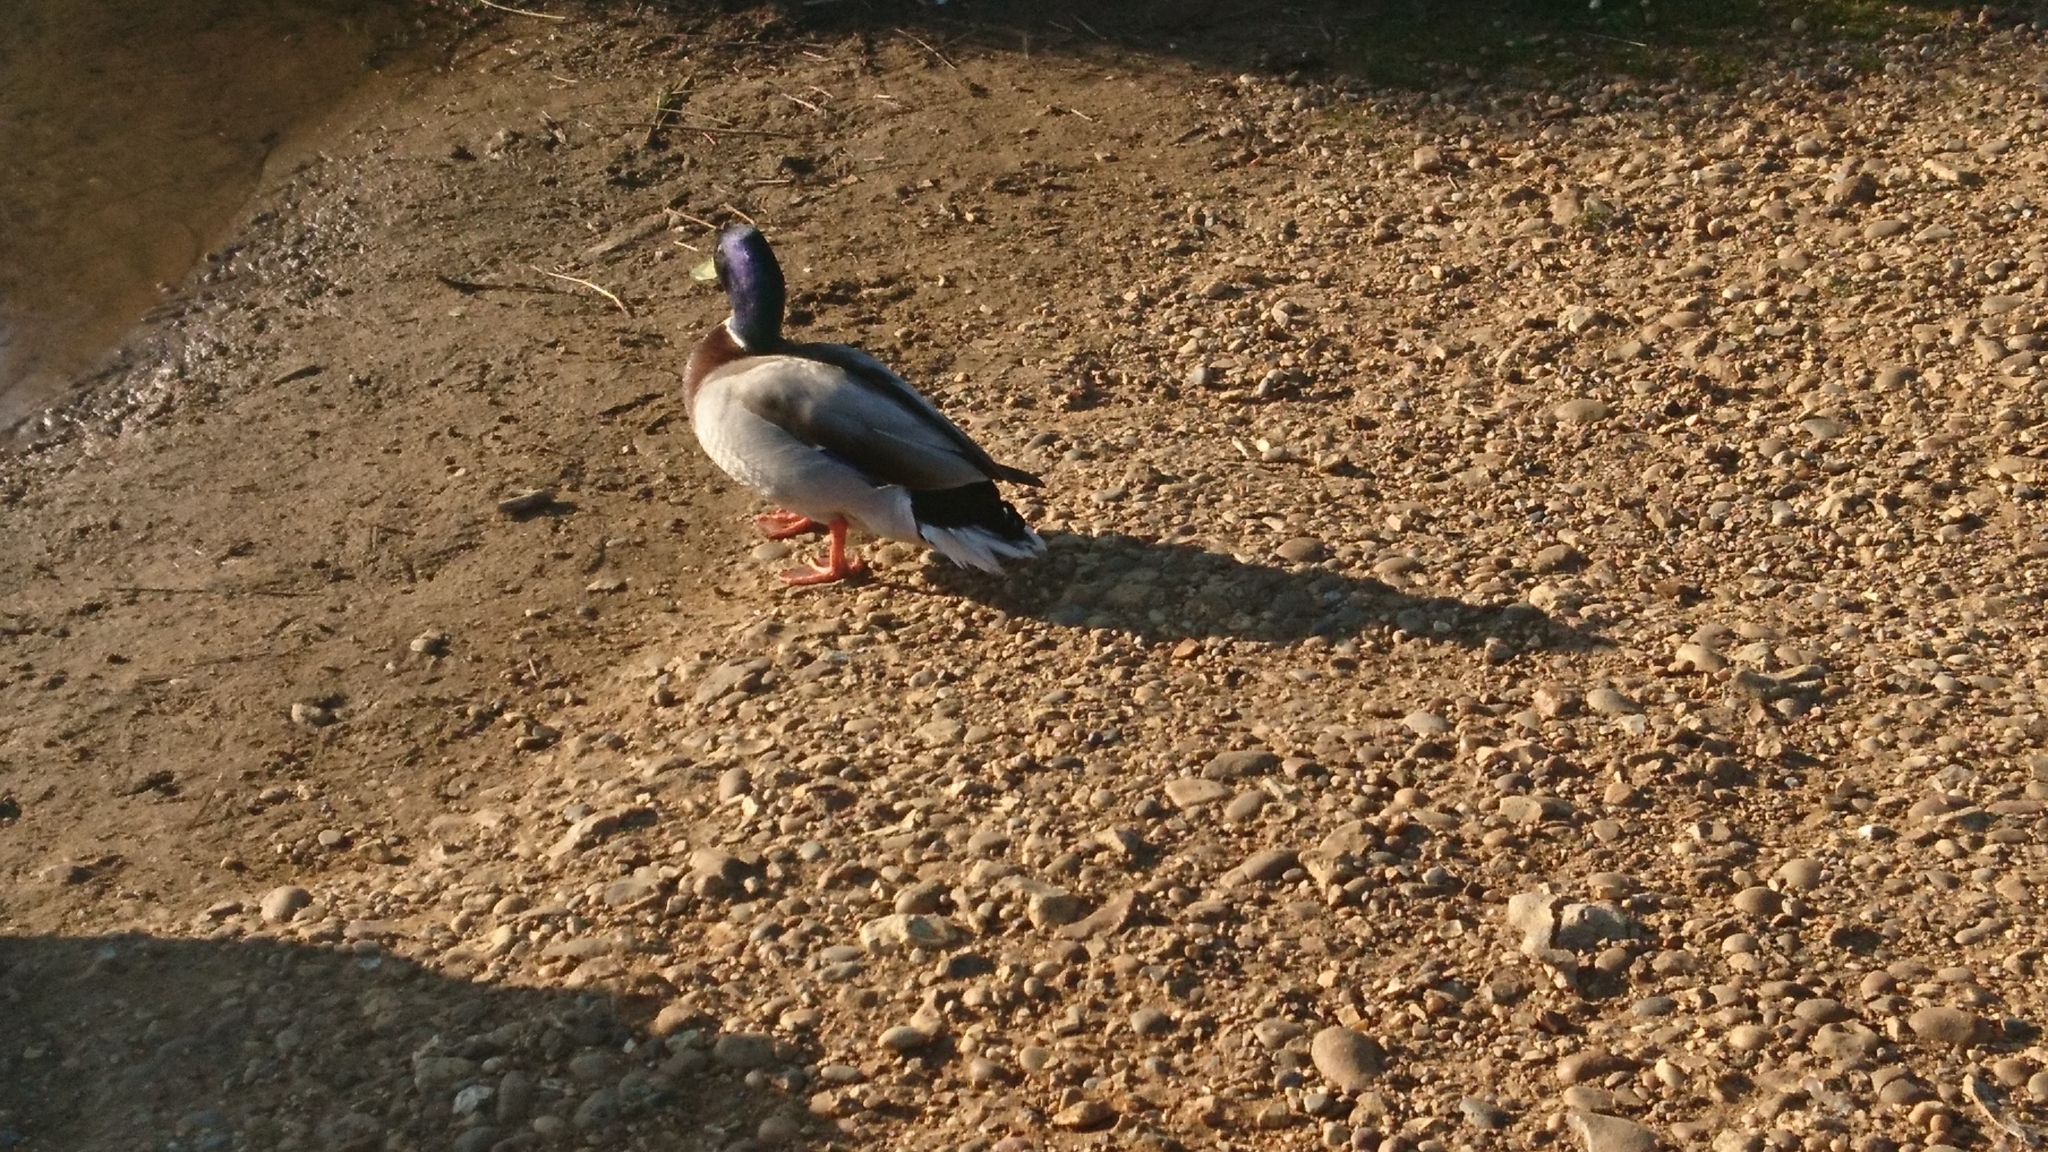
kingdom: Animalia
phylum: Chordata
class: Aves
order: Anseriformes
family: Anatidae
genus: Anas
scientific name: Anas platyrhynchos
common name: Mallard
